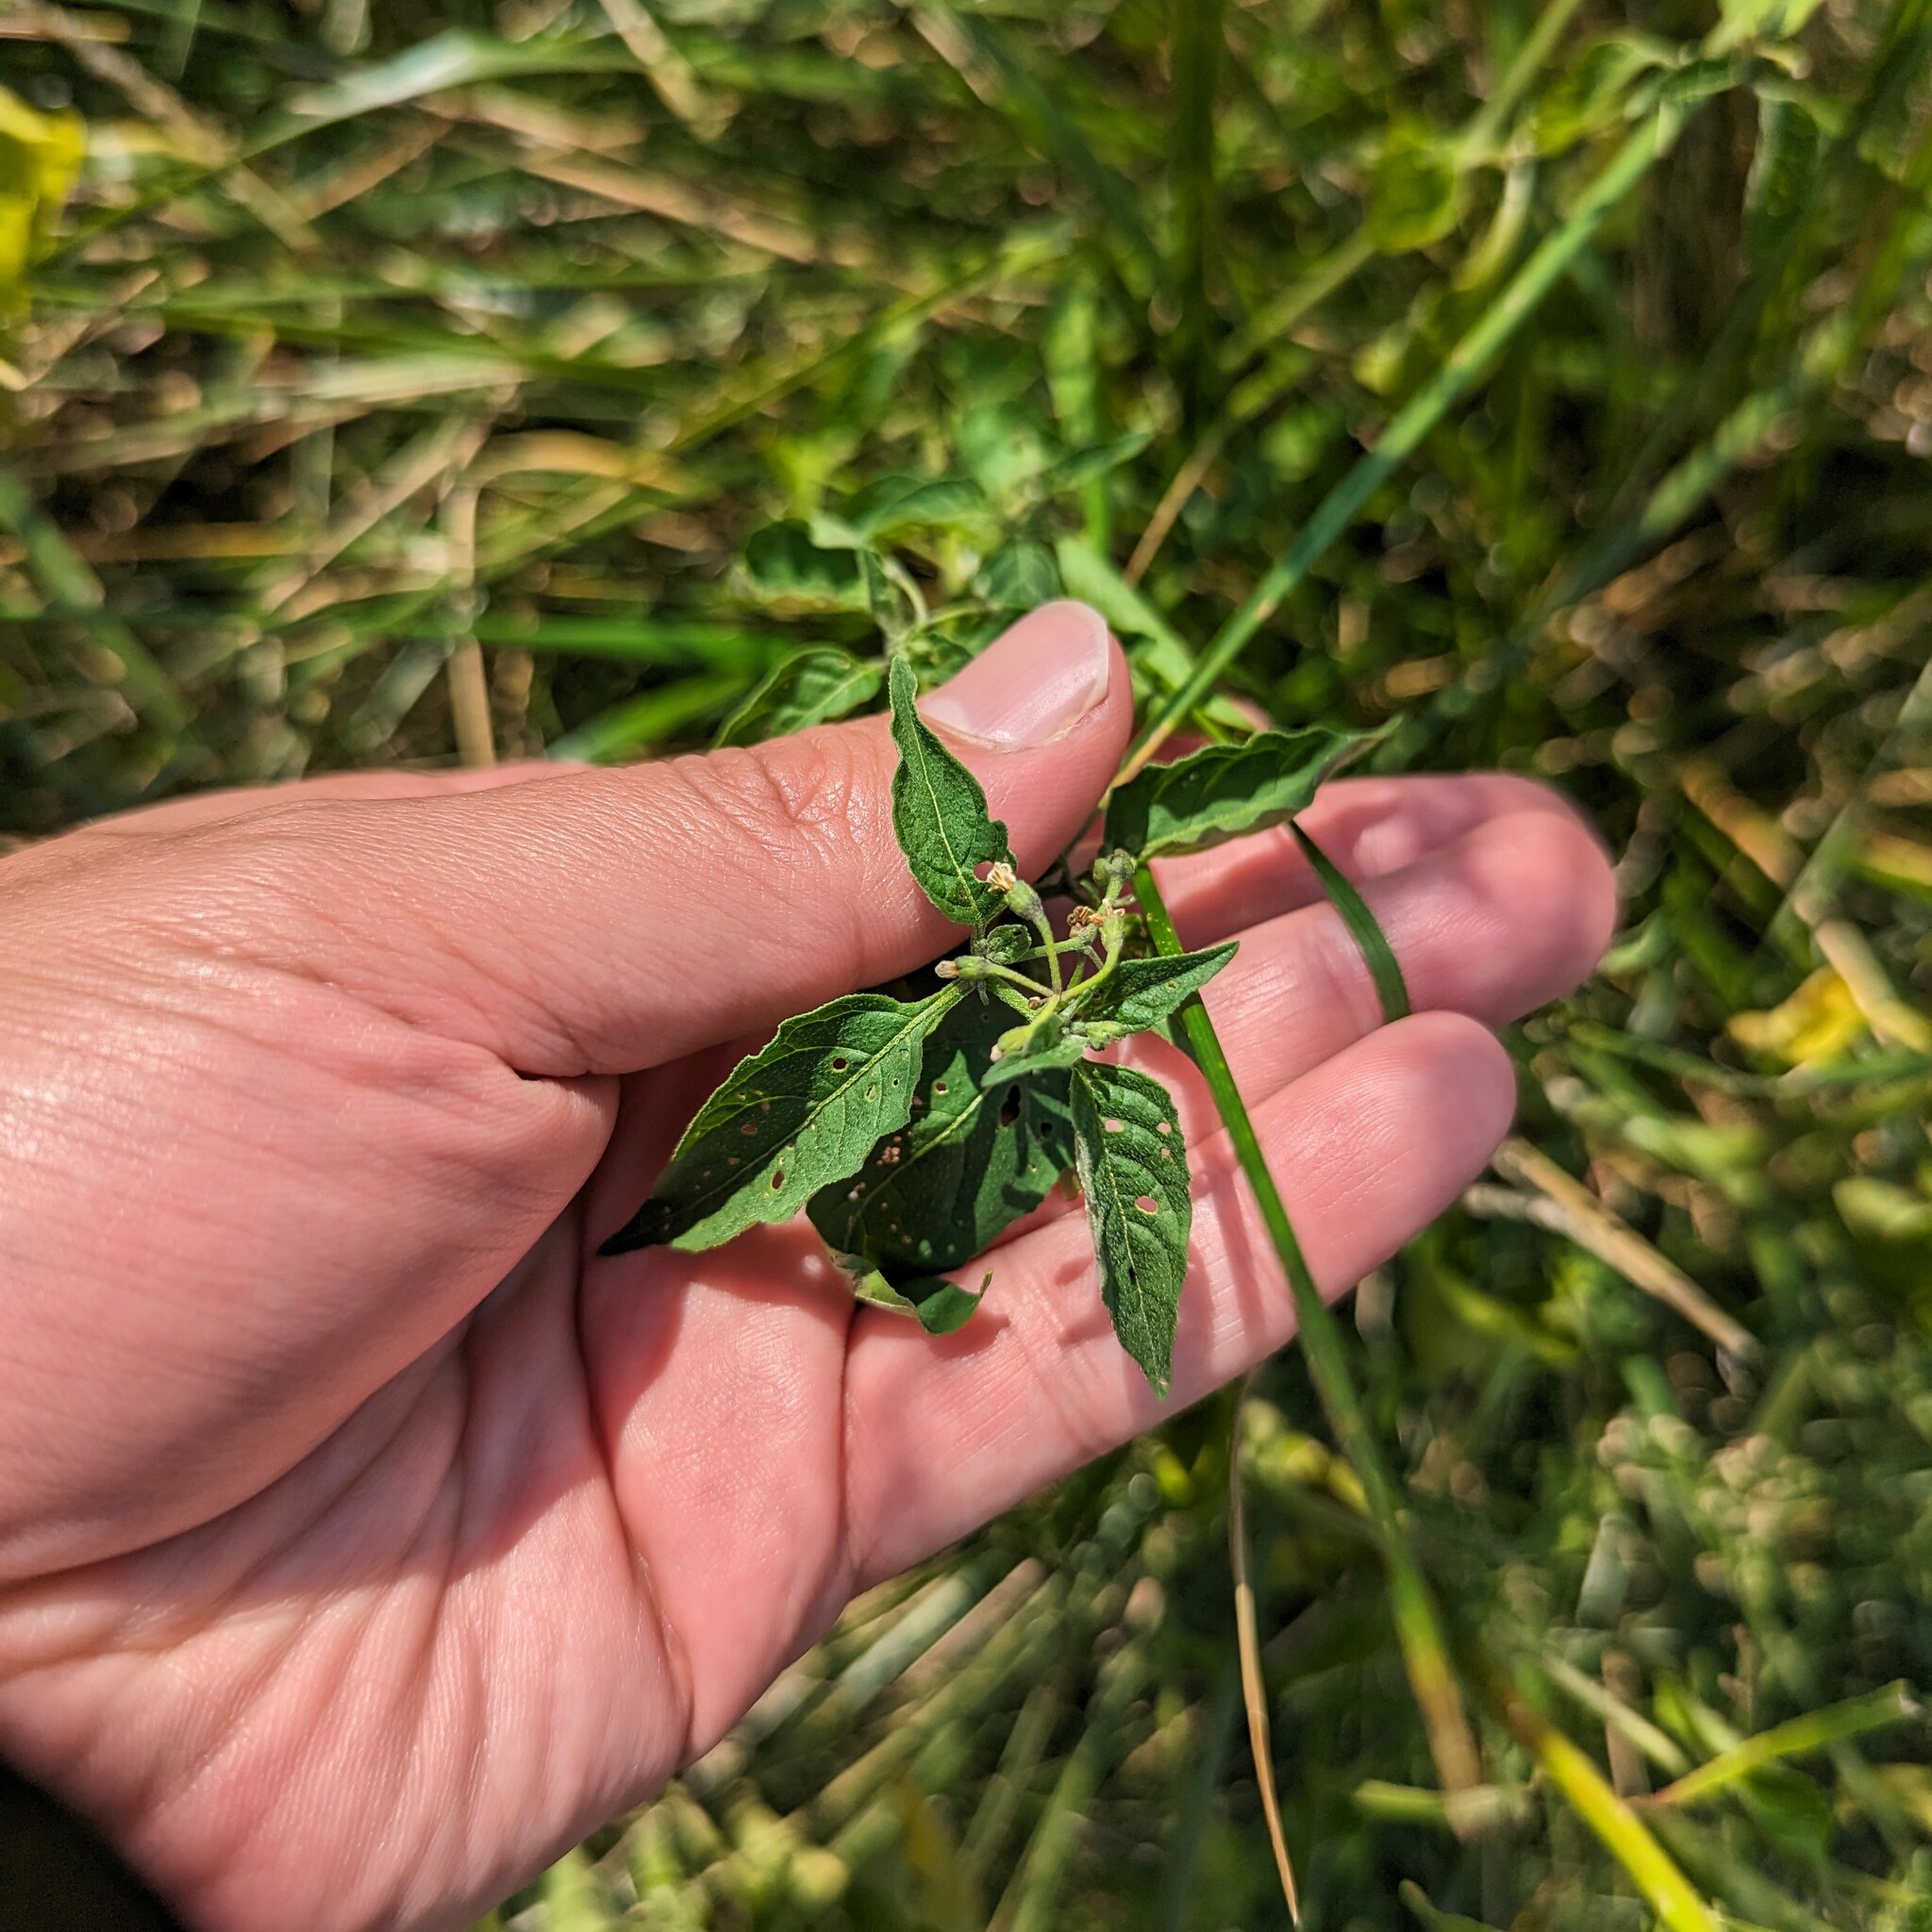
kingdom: Plantae
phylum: Tracheophyta
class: Magnoliopsida
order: Solanales
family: Solanaceae
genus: Solanum
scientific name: Solanum emulans
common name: Eastern black nightshade
